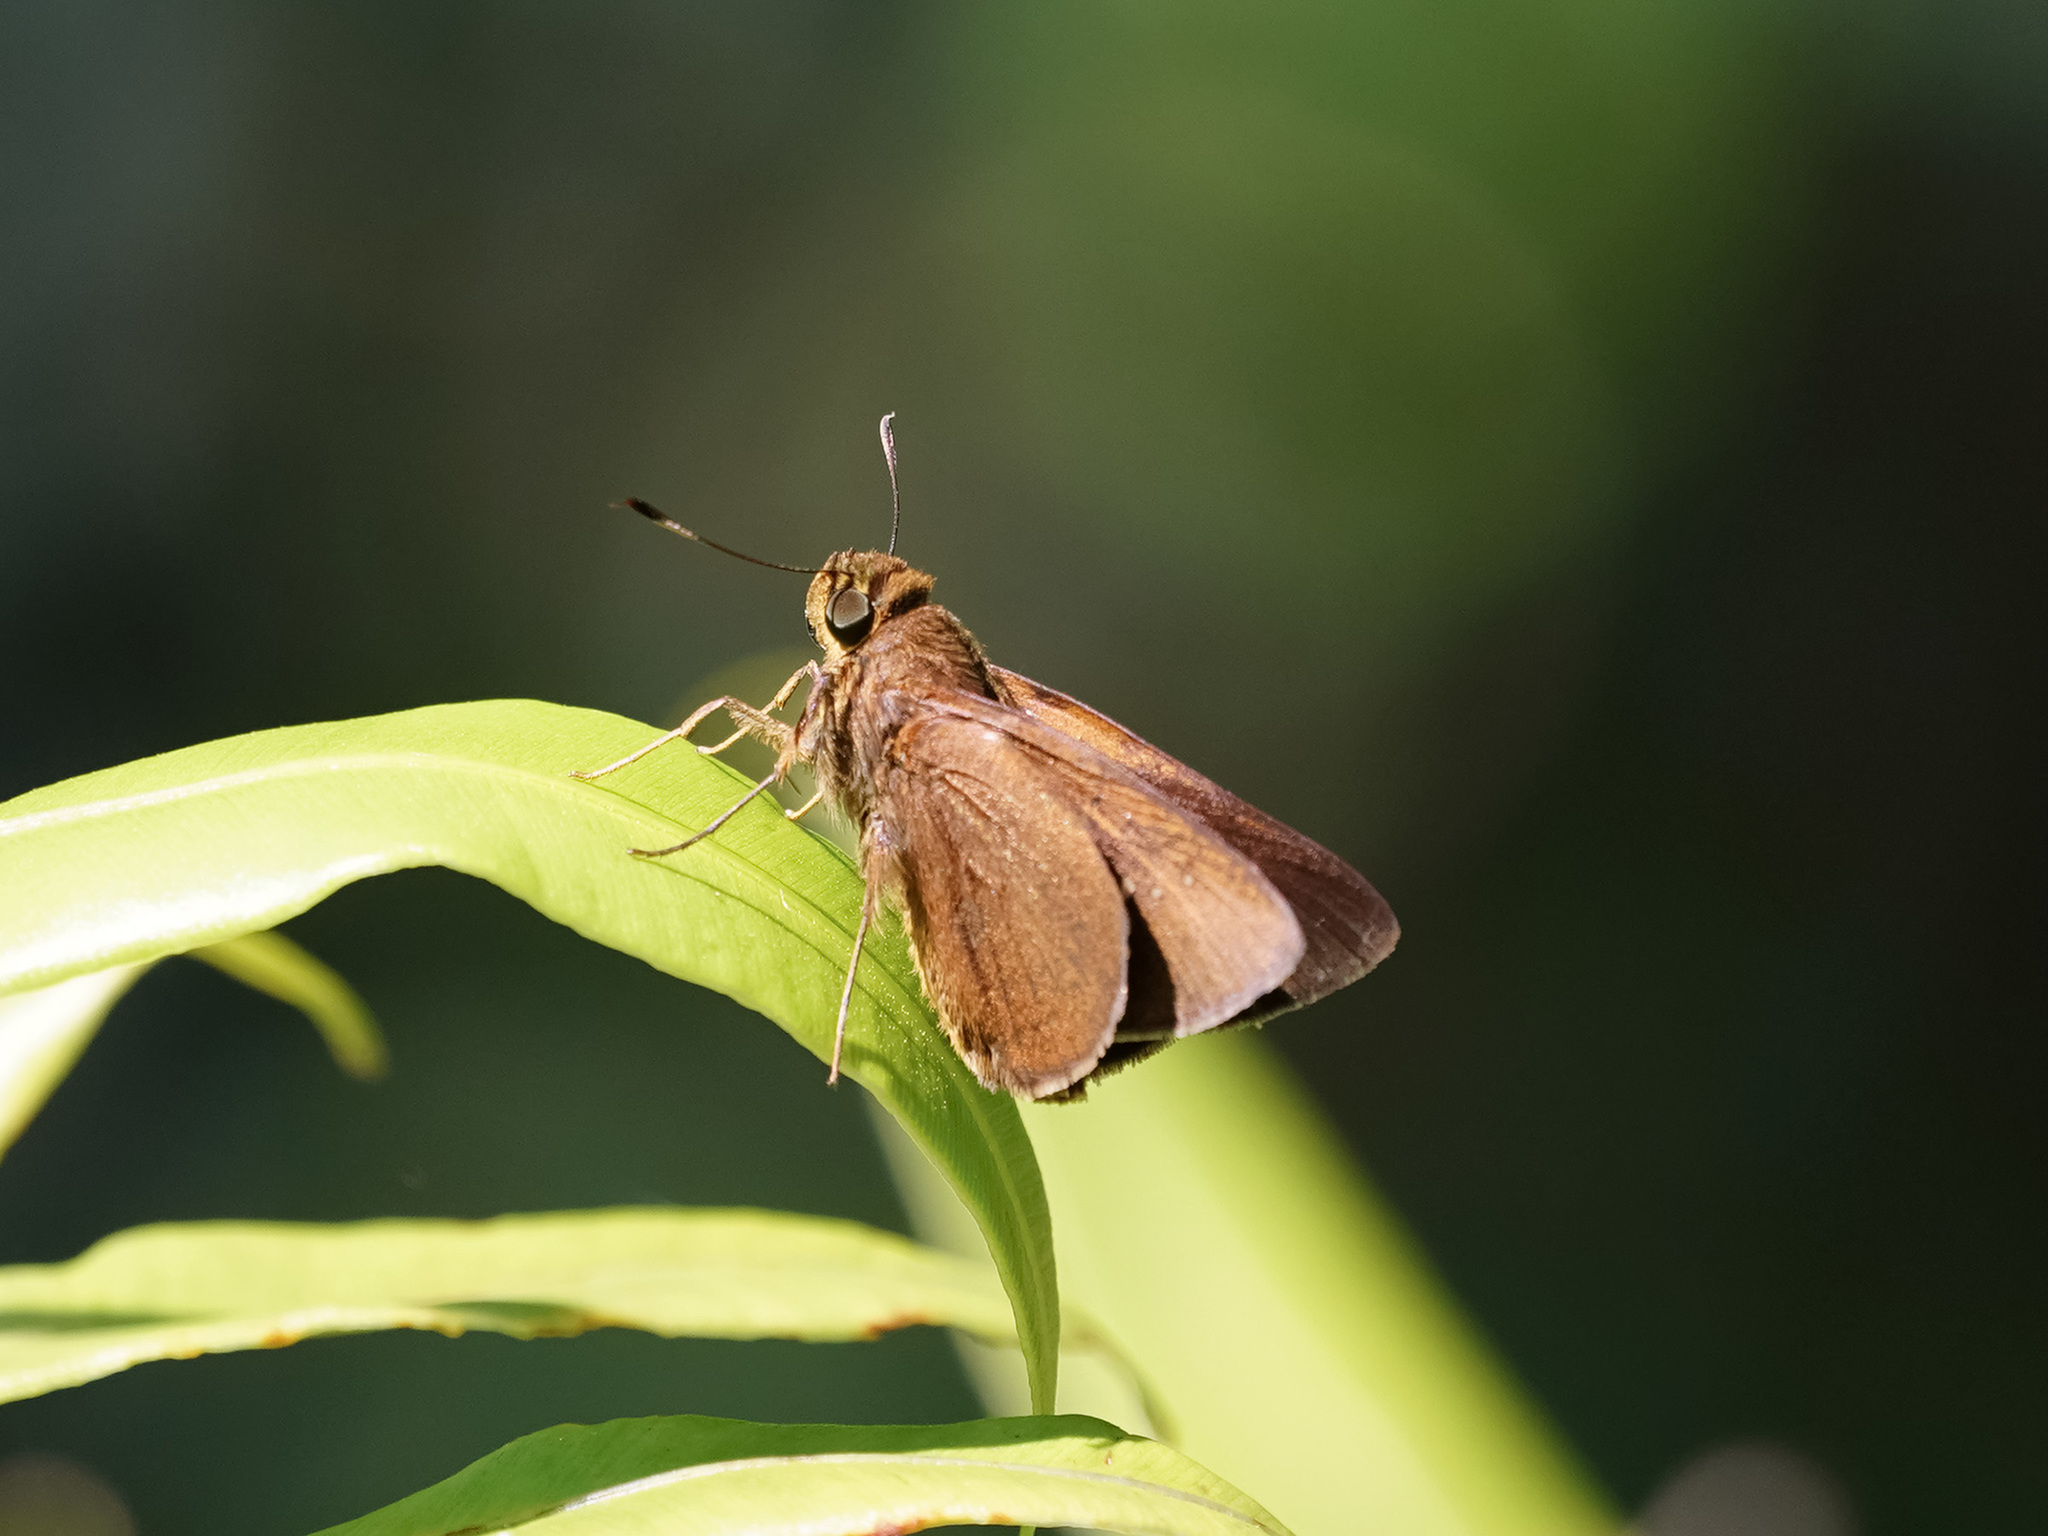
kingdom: Animalia
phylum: Arthropoda
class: Insecta
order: Lepidoptera
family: Hesperiidae
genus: Caltoris
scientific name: Caltoris sirius
